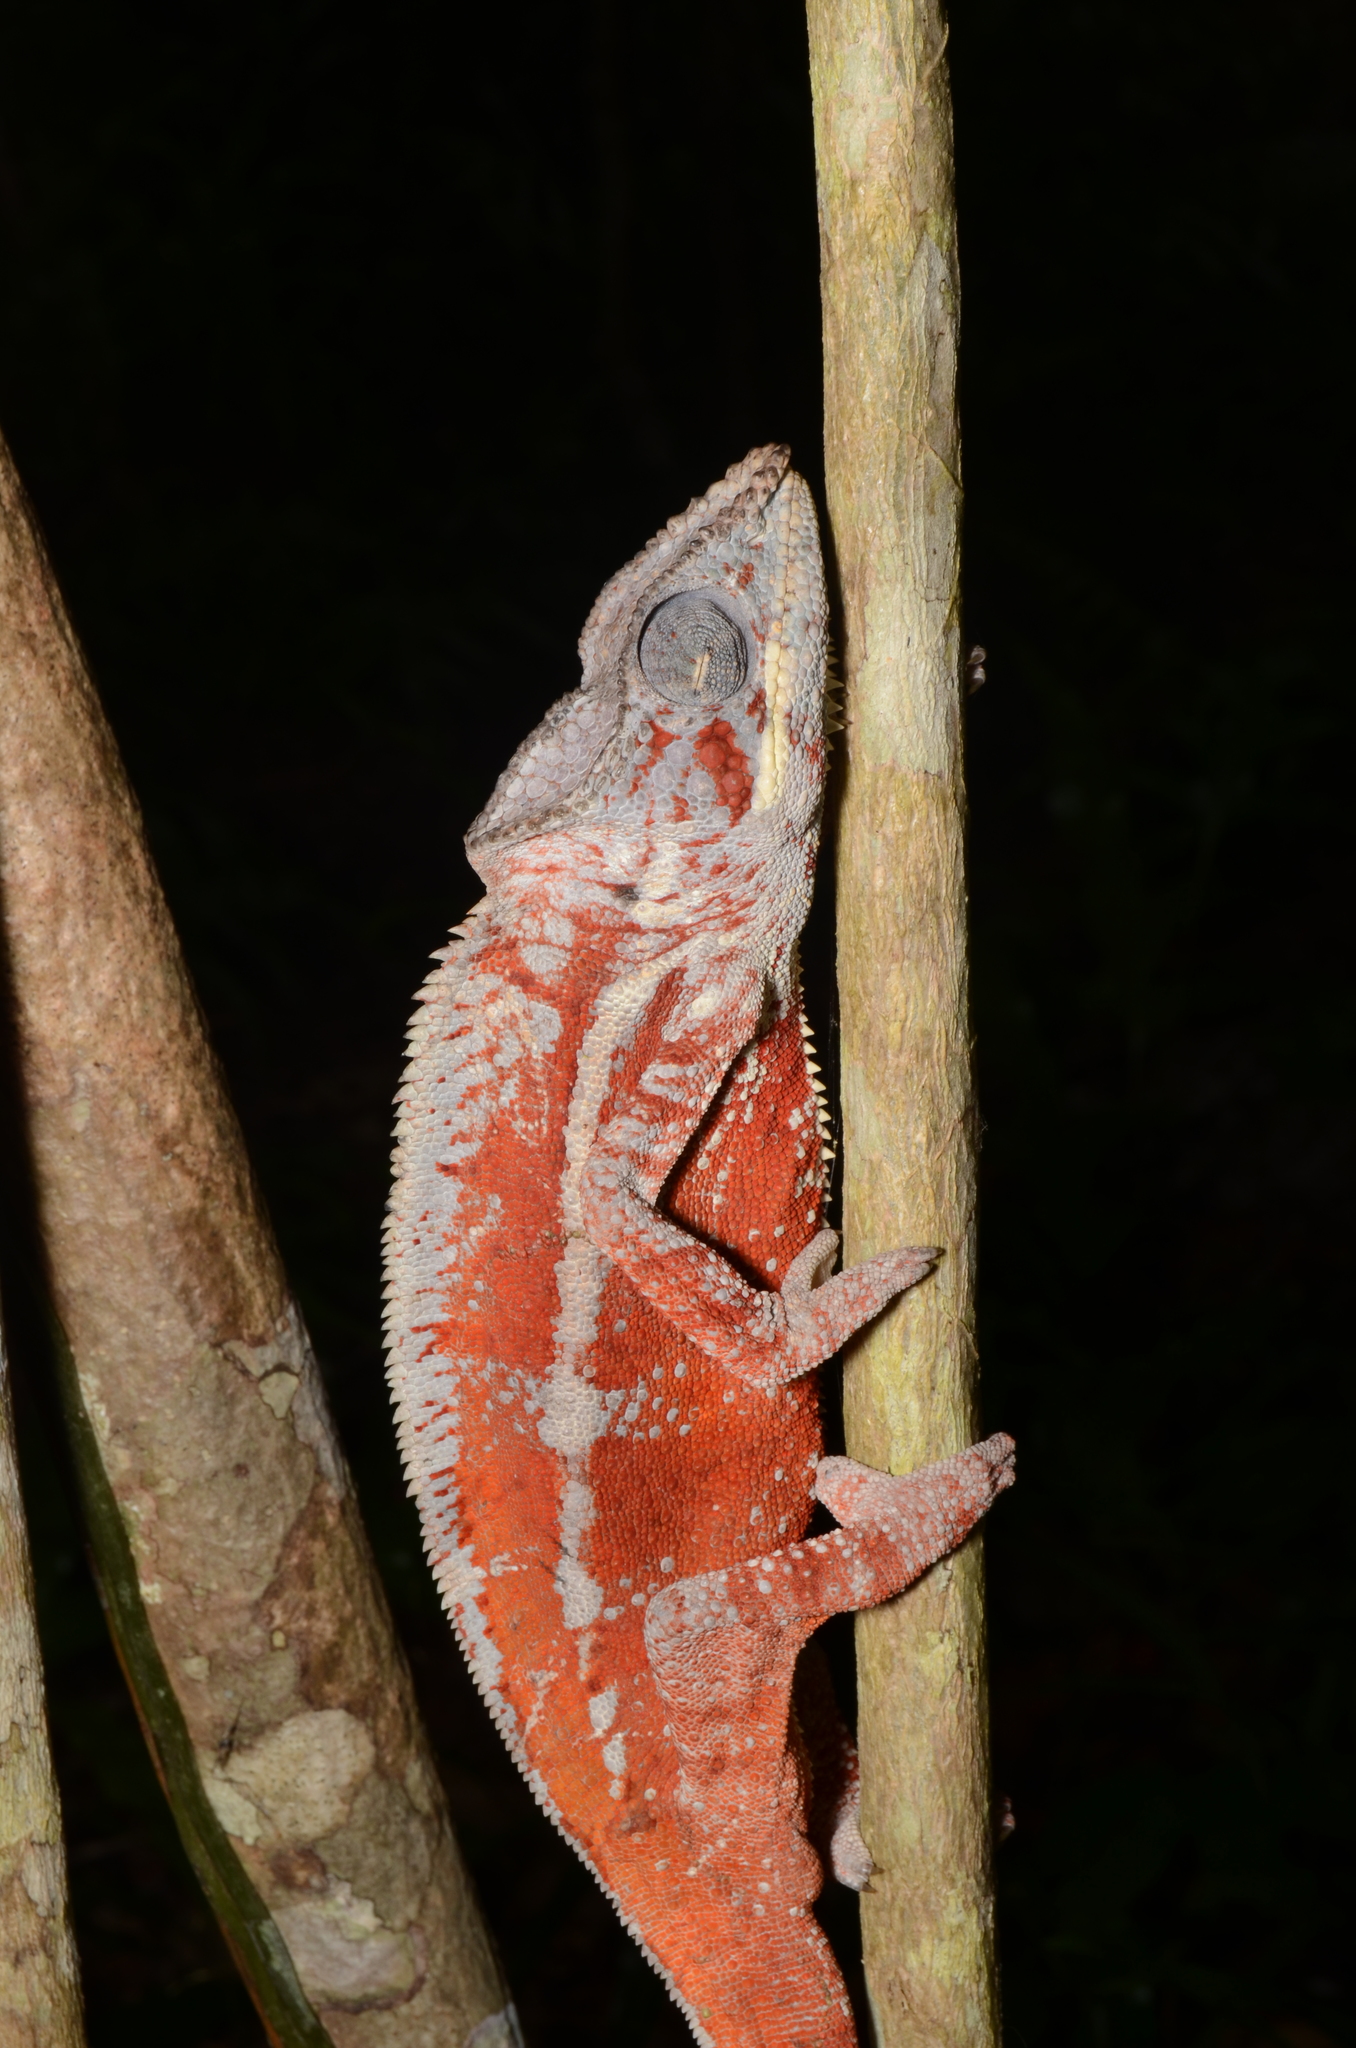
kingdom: Animalia
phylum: Chordata
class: Squamata
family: Chamaeleonidae
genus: Furcifer
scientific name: Furcifer pardalis
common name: Panther chameleon
